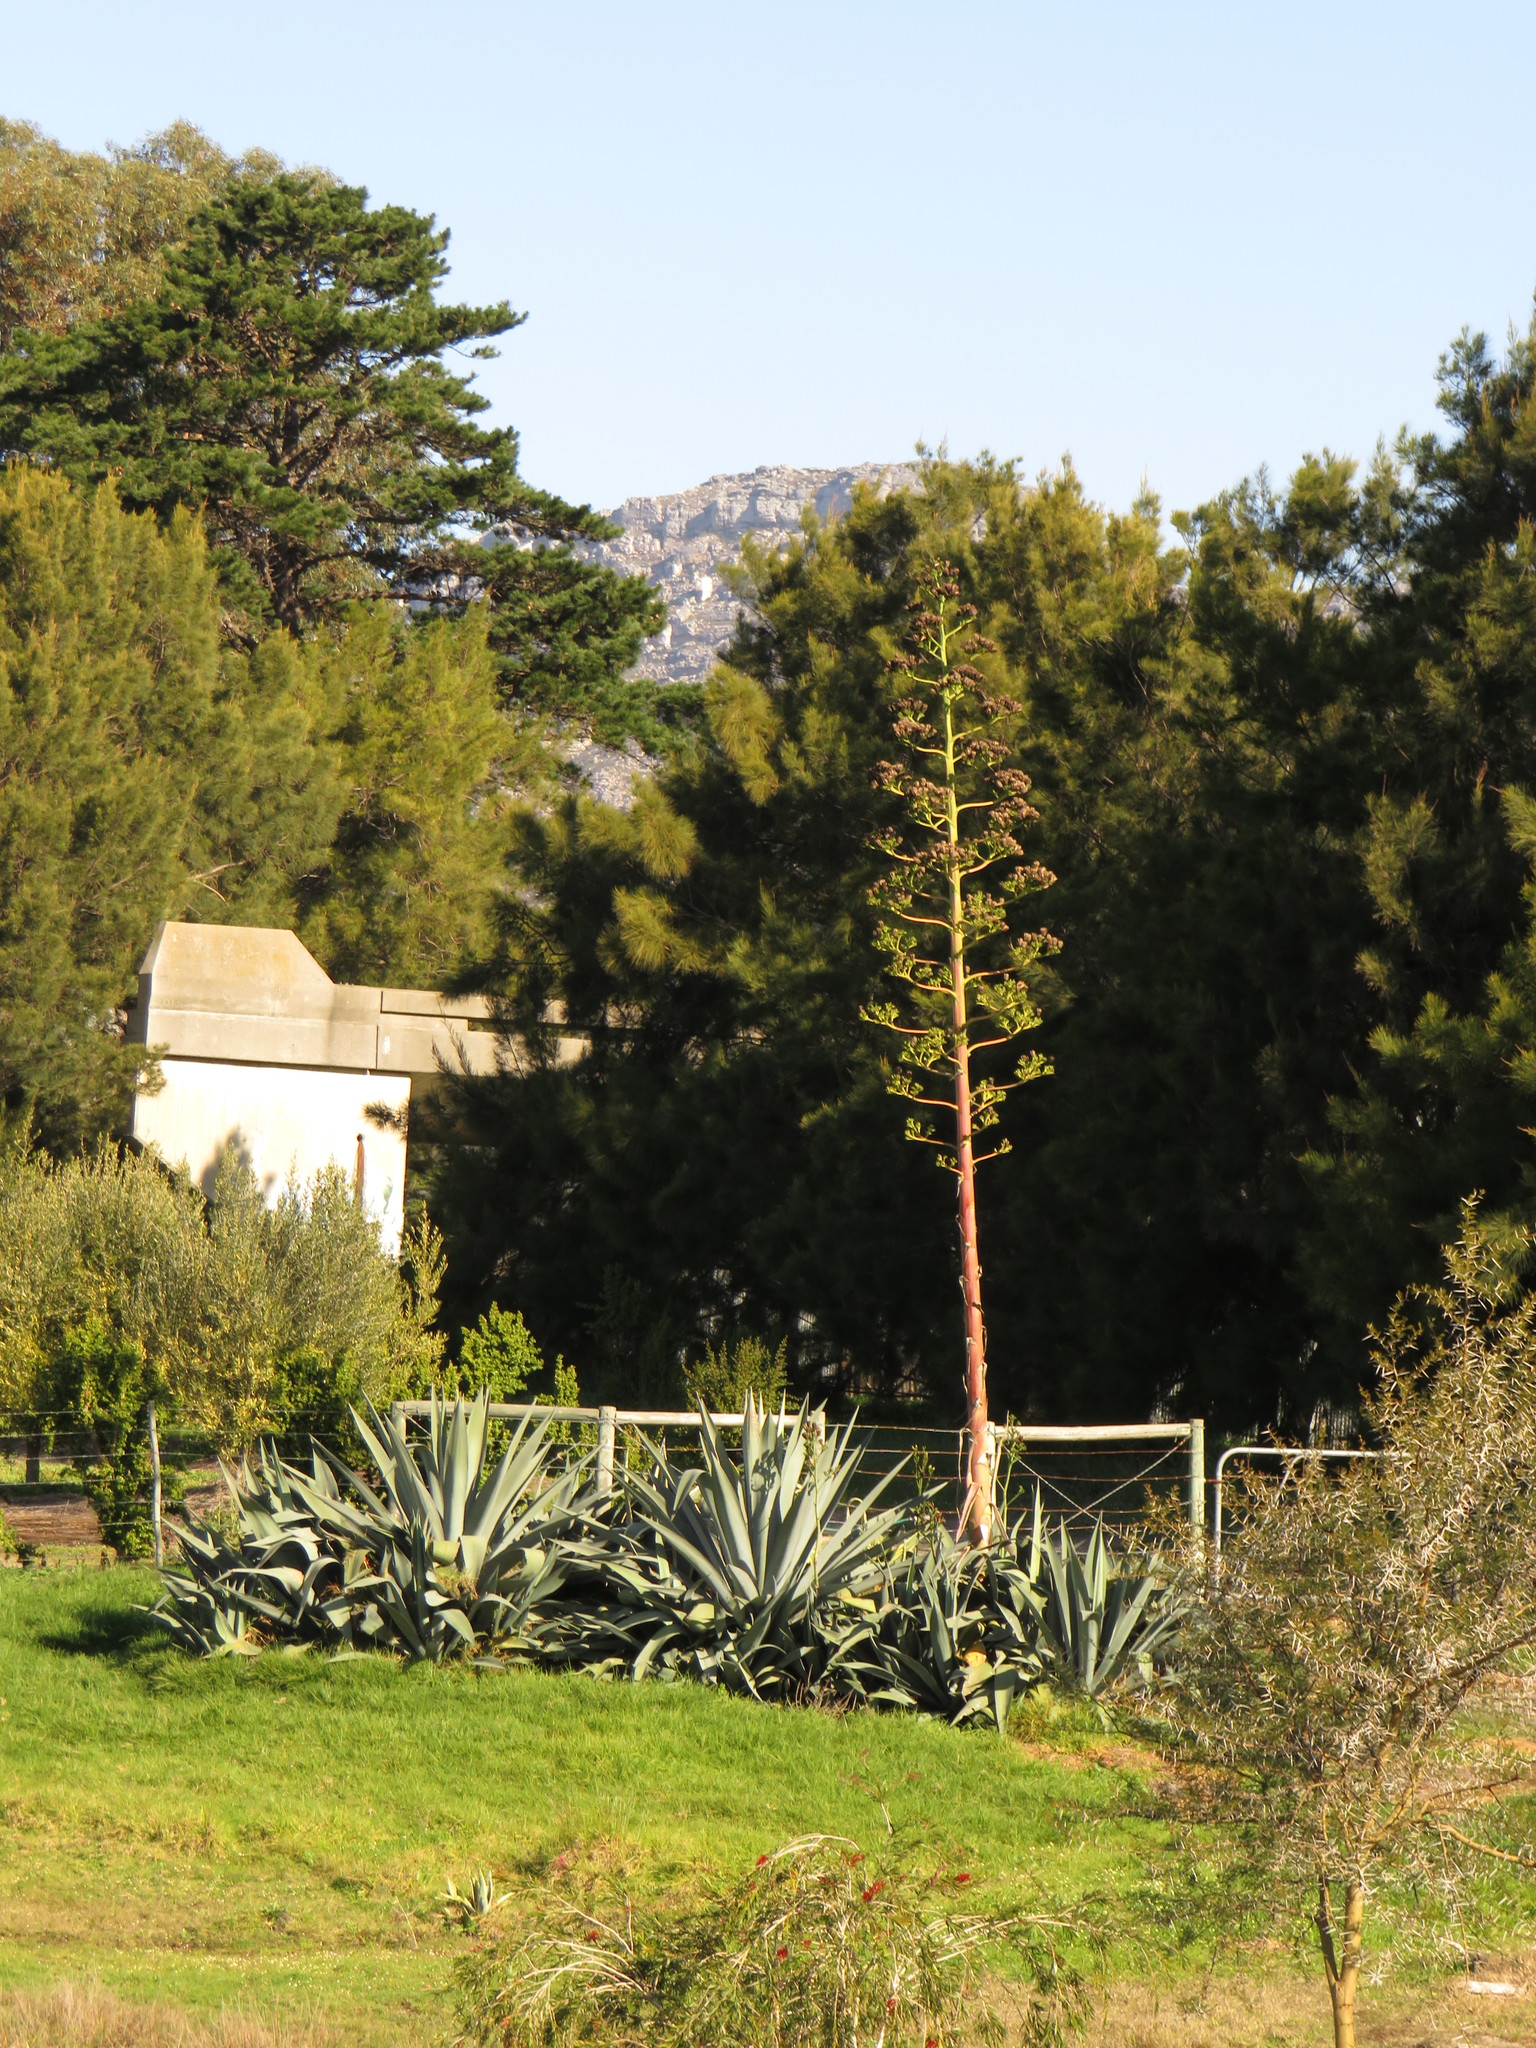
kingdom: Plantae
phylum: Tracheophyta
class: Liliopsida
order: Asparagales
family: Asparagaceae
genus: Agave
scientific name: Agave americana
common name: Centuryplant
